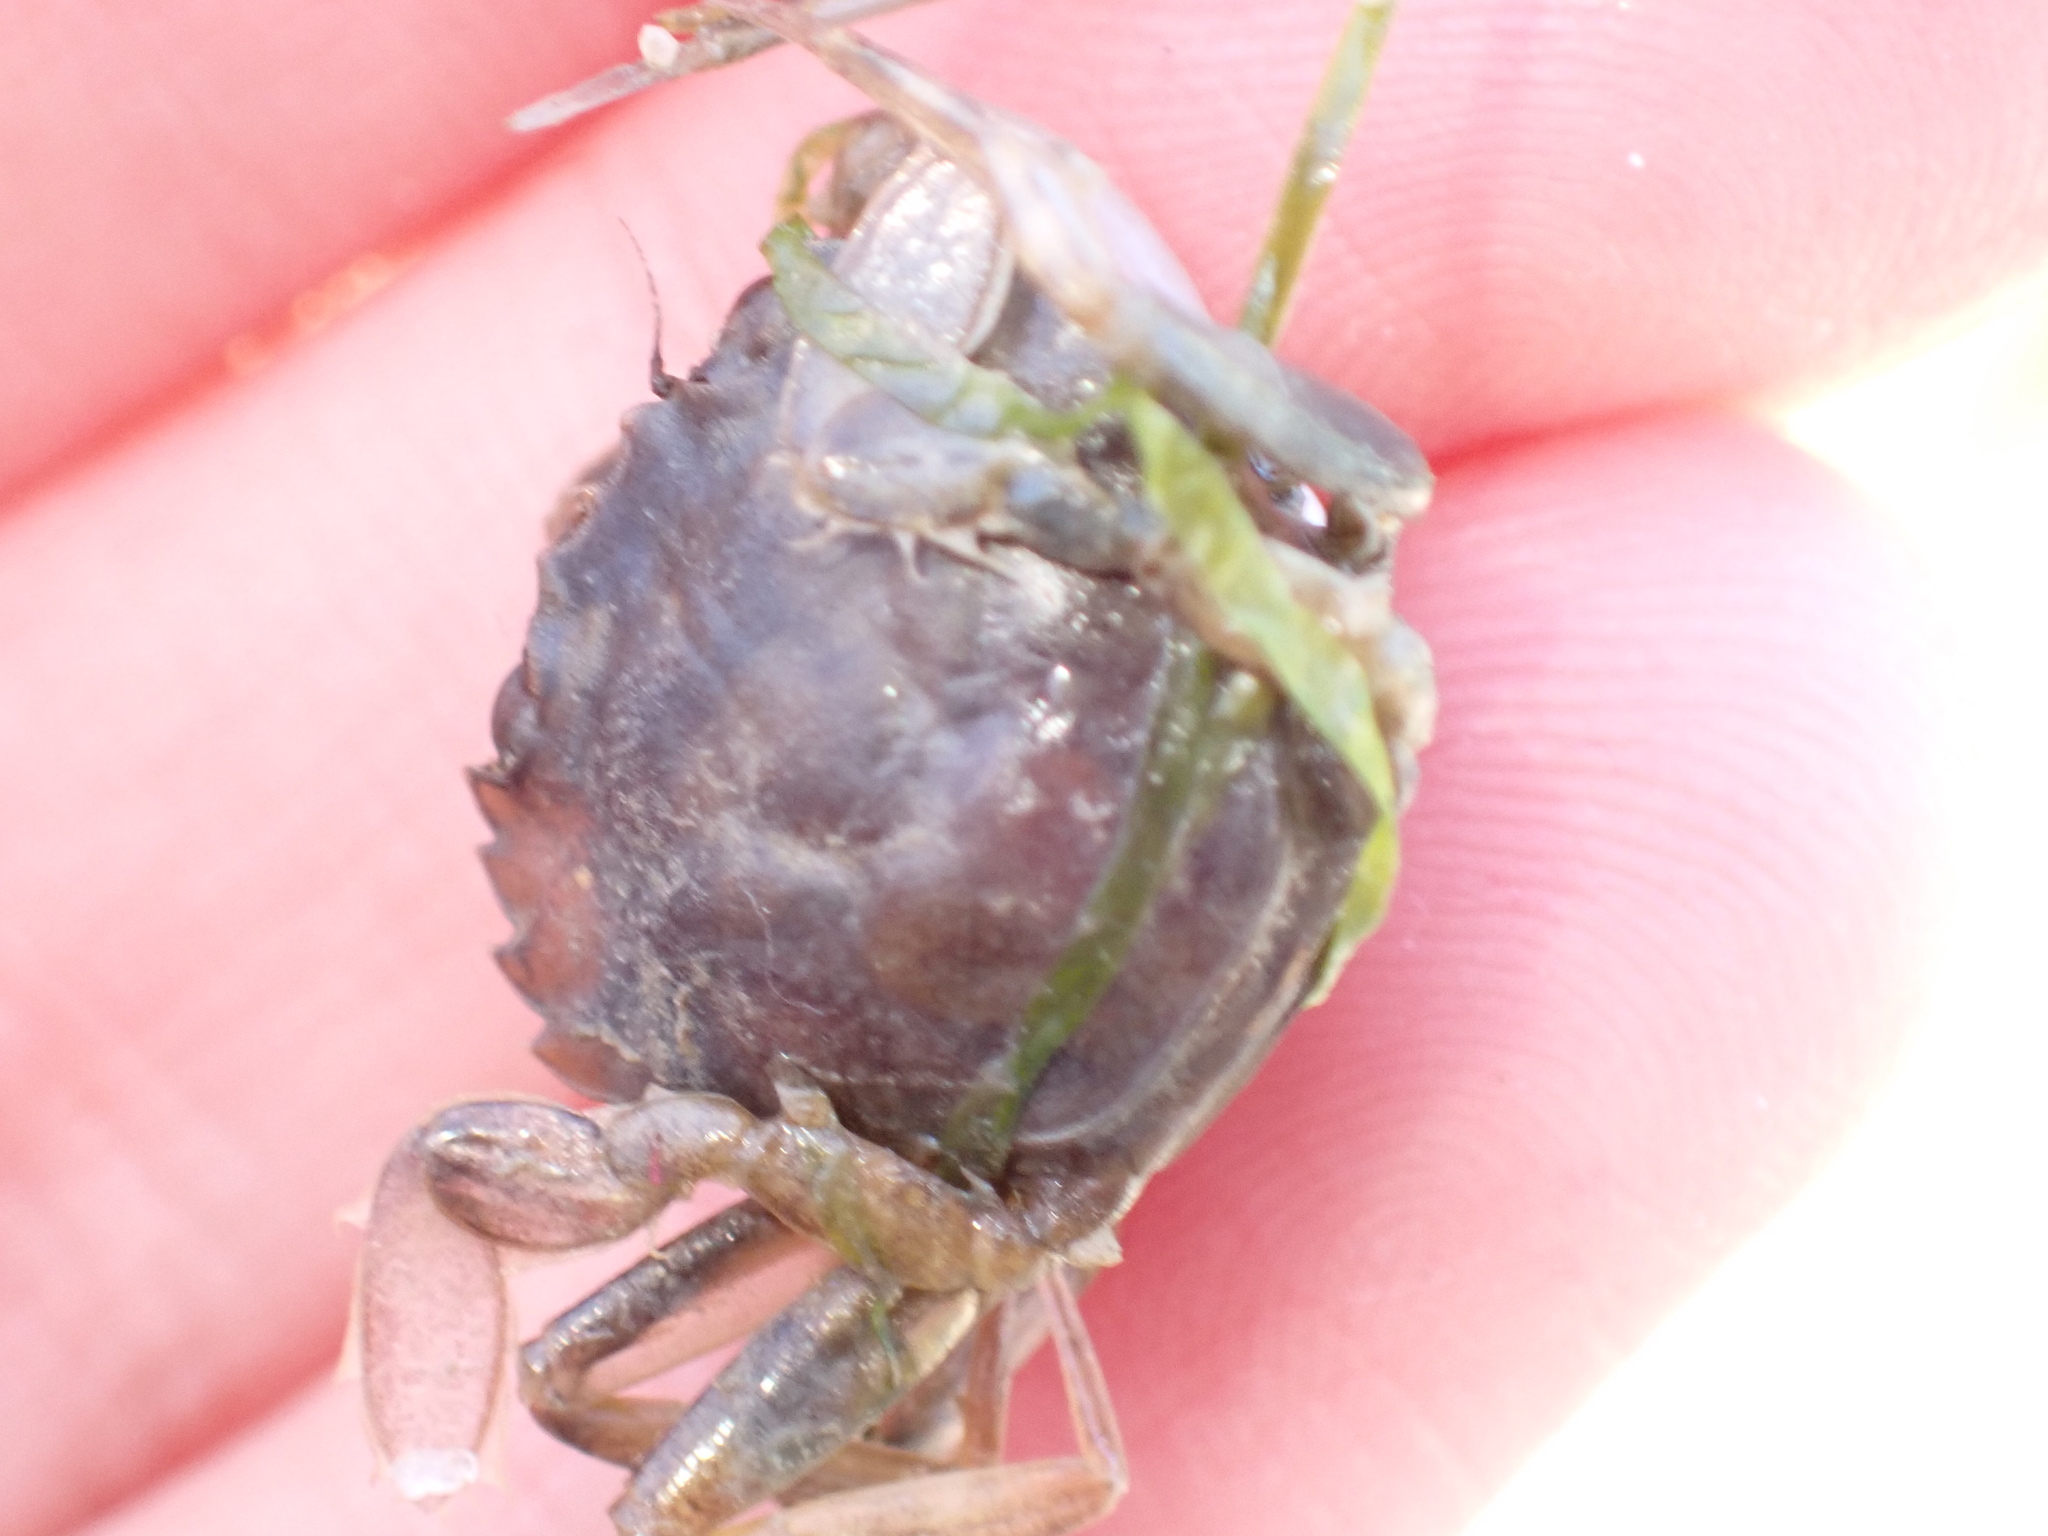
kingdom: Animalia
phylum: Arthropoda
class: Malacostraca
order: Decapoda
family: Carcinidae
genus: Carcinus
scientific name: Carcinus aestuarii
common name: Mediterranean green crab
